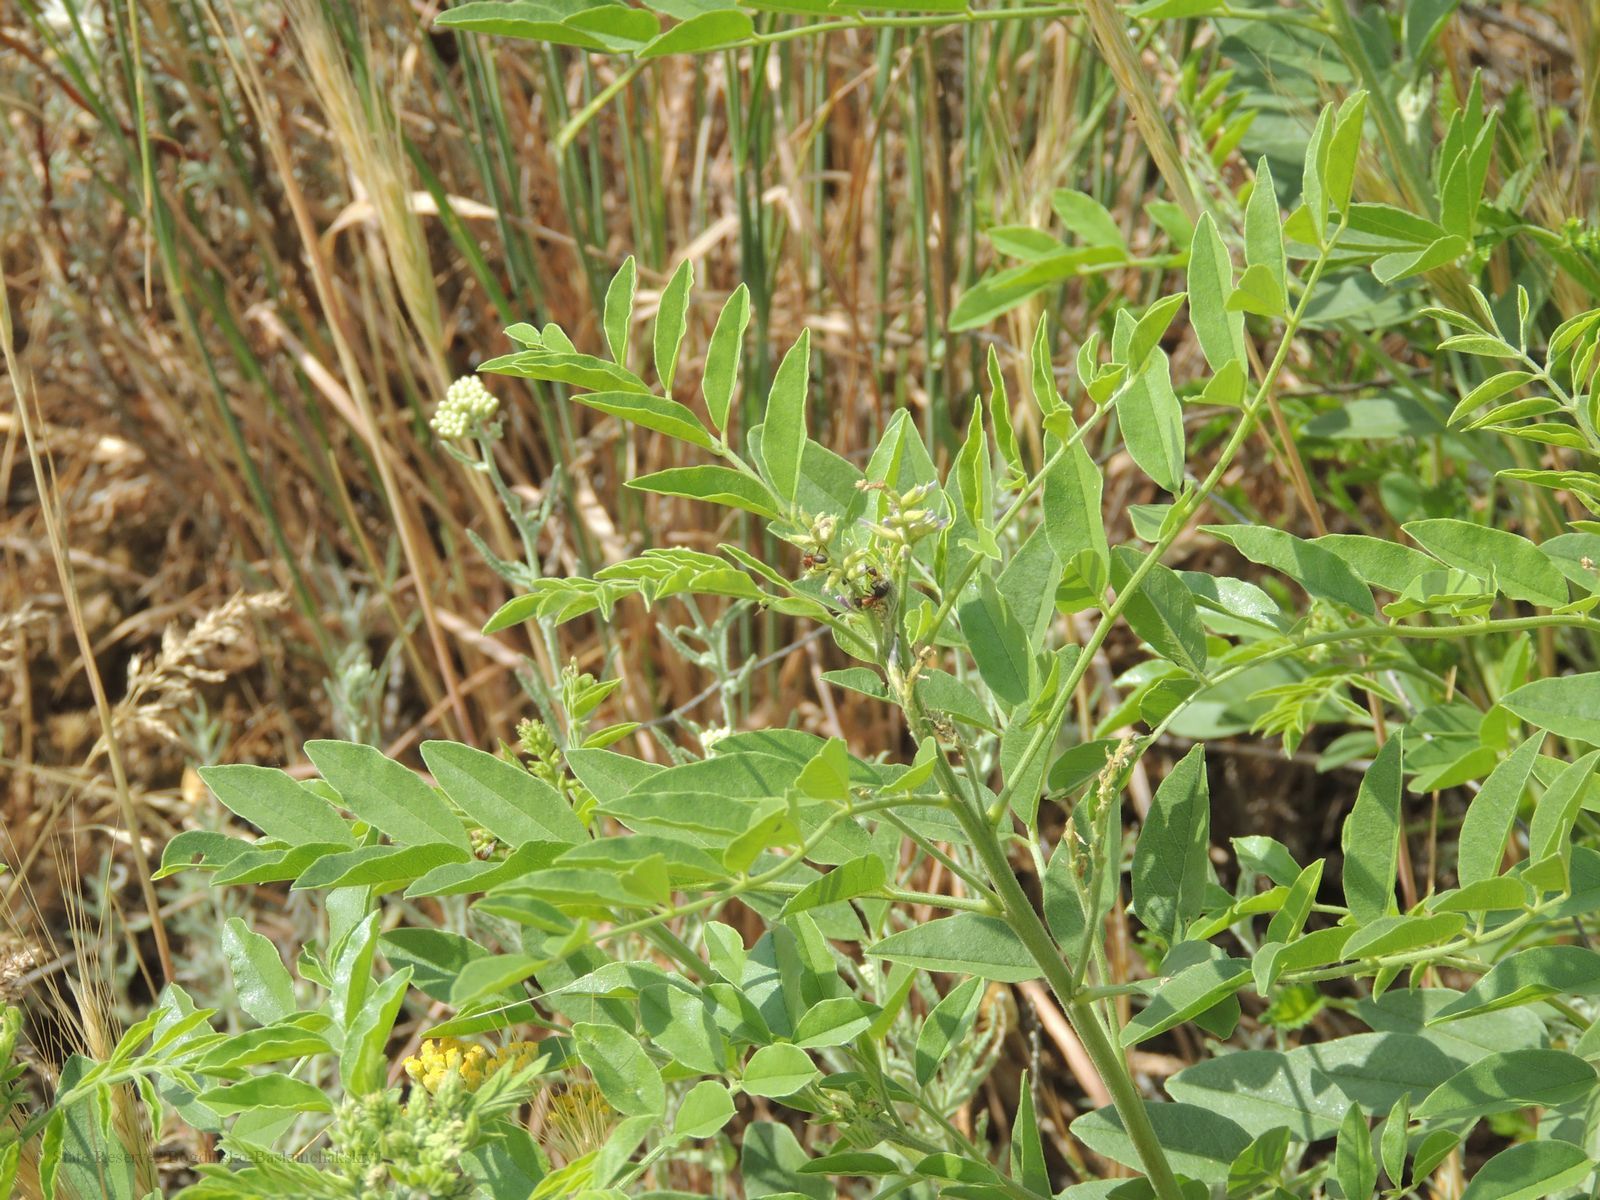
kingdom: Plantae
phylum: Tracheophyta
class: Magnoliopsida
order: Fabales
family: Fabaceae
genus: Glycyrrhiza
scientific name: Glycyrrhiza glabra
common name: Liquorice
